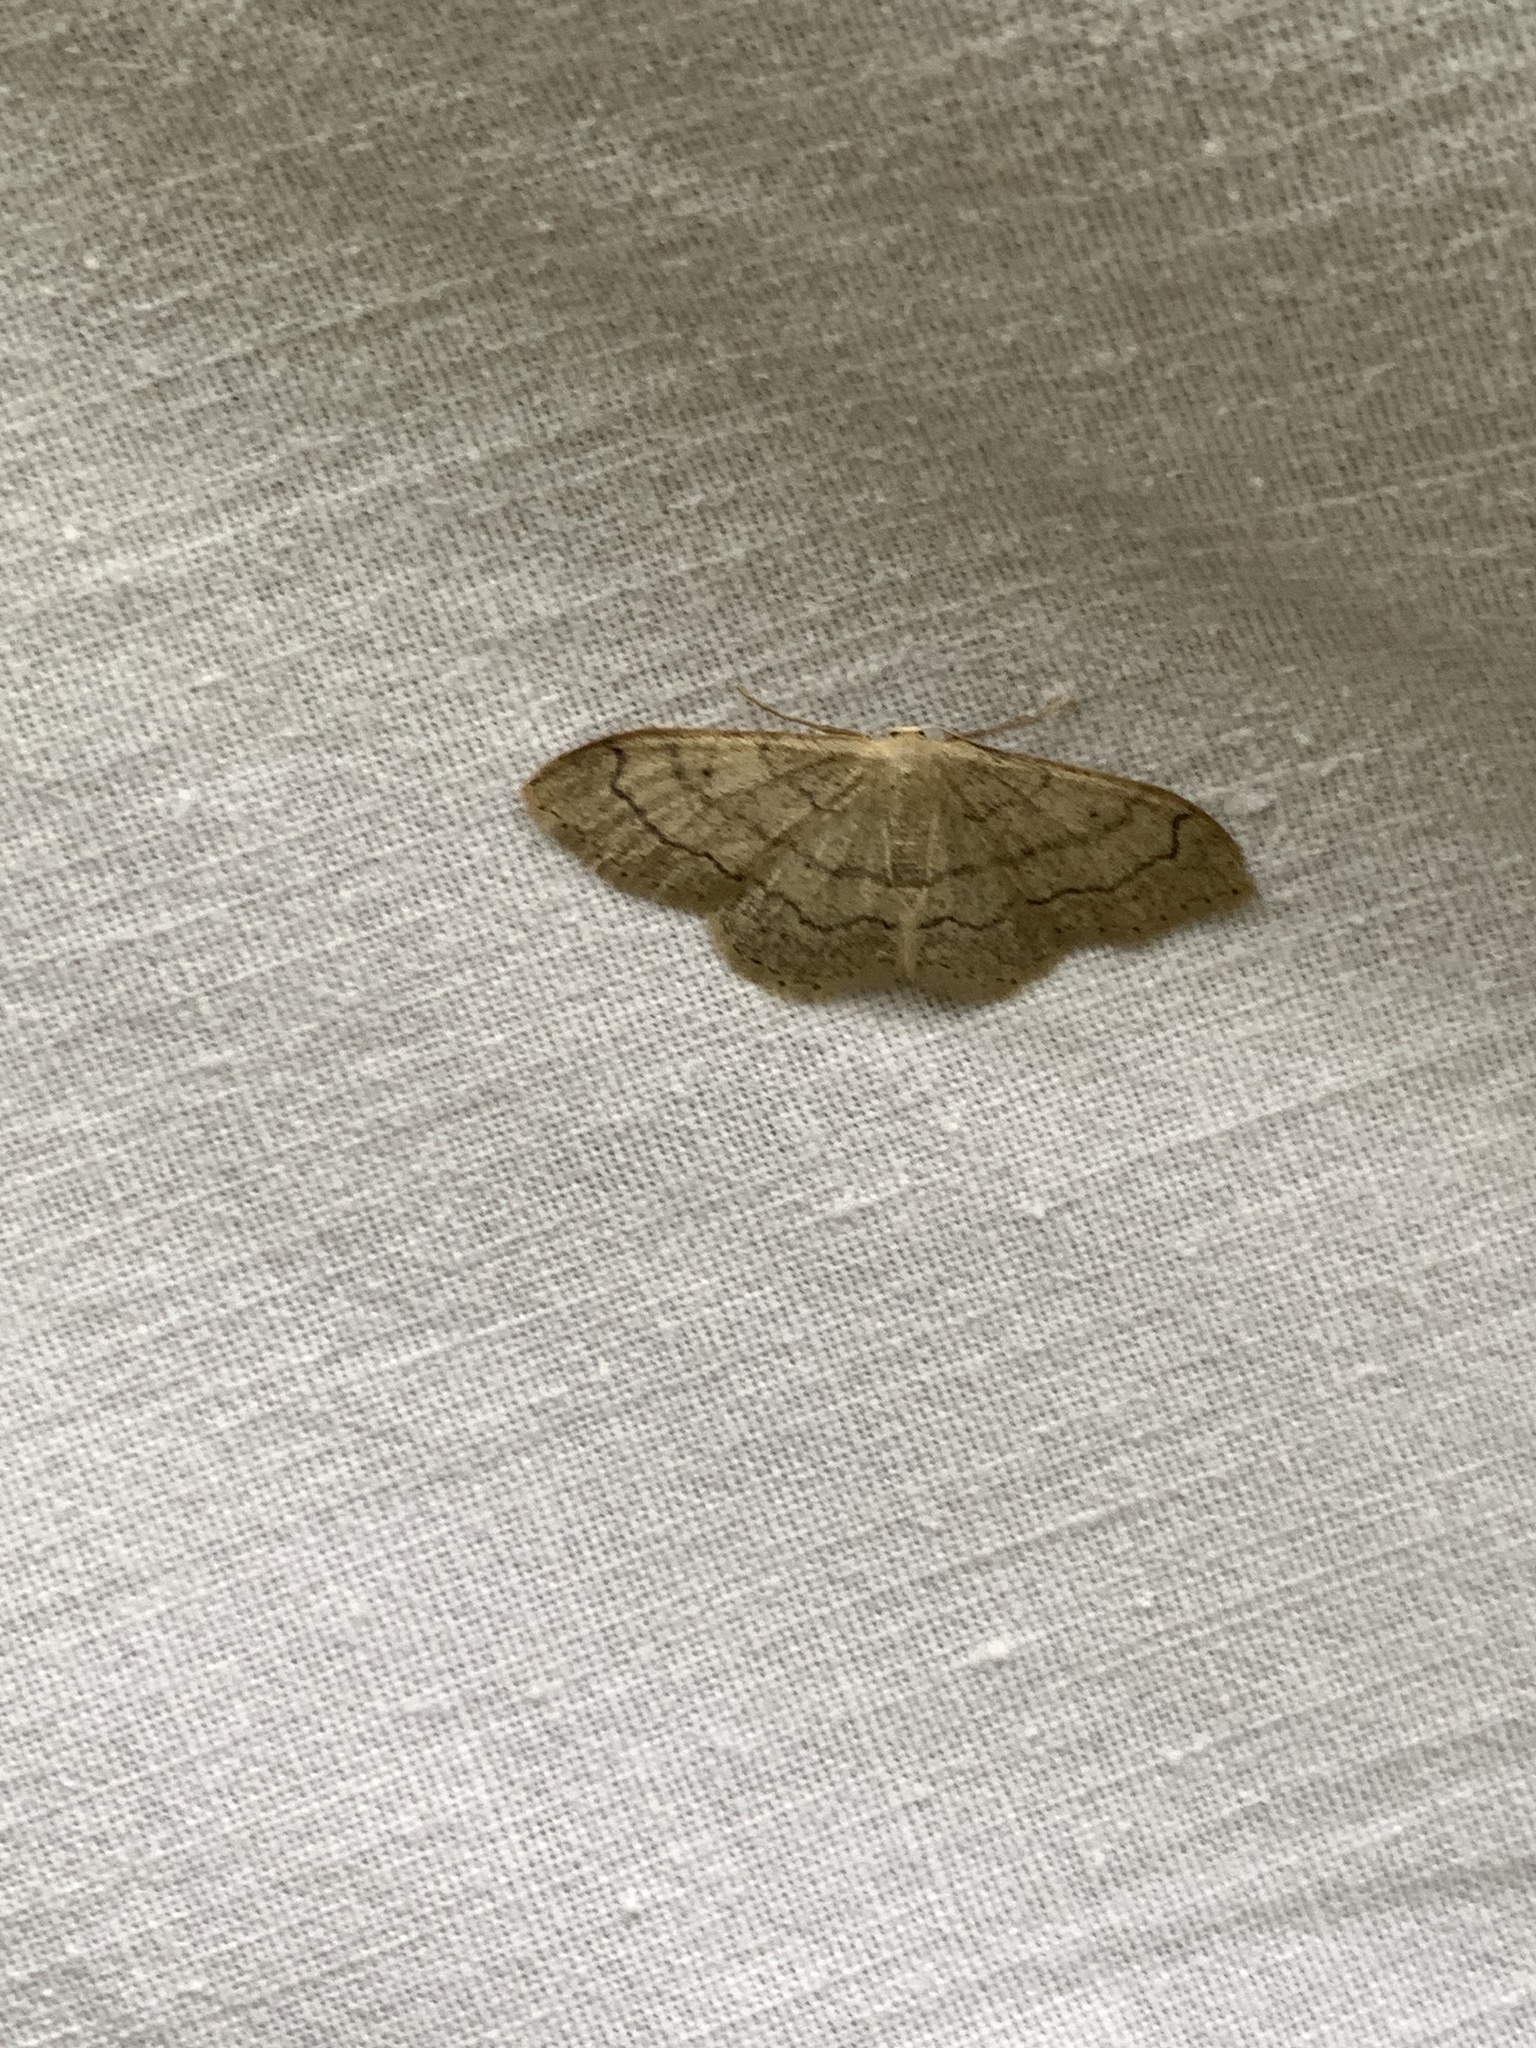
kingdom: Animalia
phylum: Arthropoda
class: Insecta
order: Lepidoptera
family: Geometridae
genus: Idaea
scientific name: Idaea aversata
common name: Riband wave
